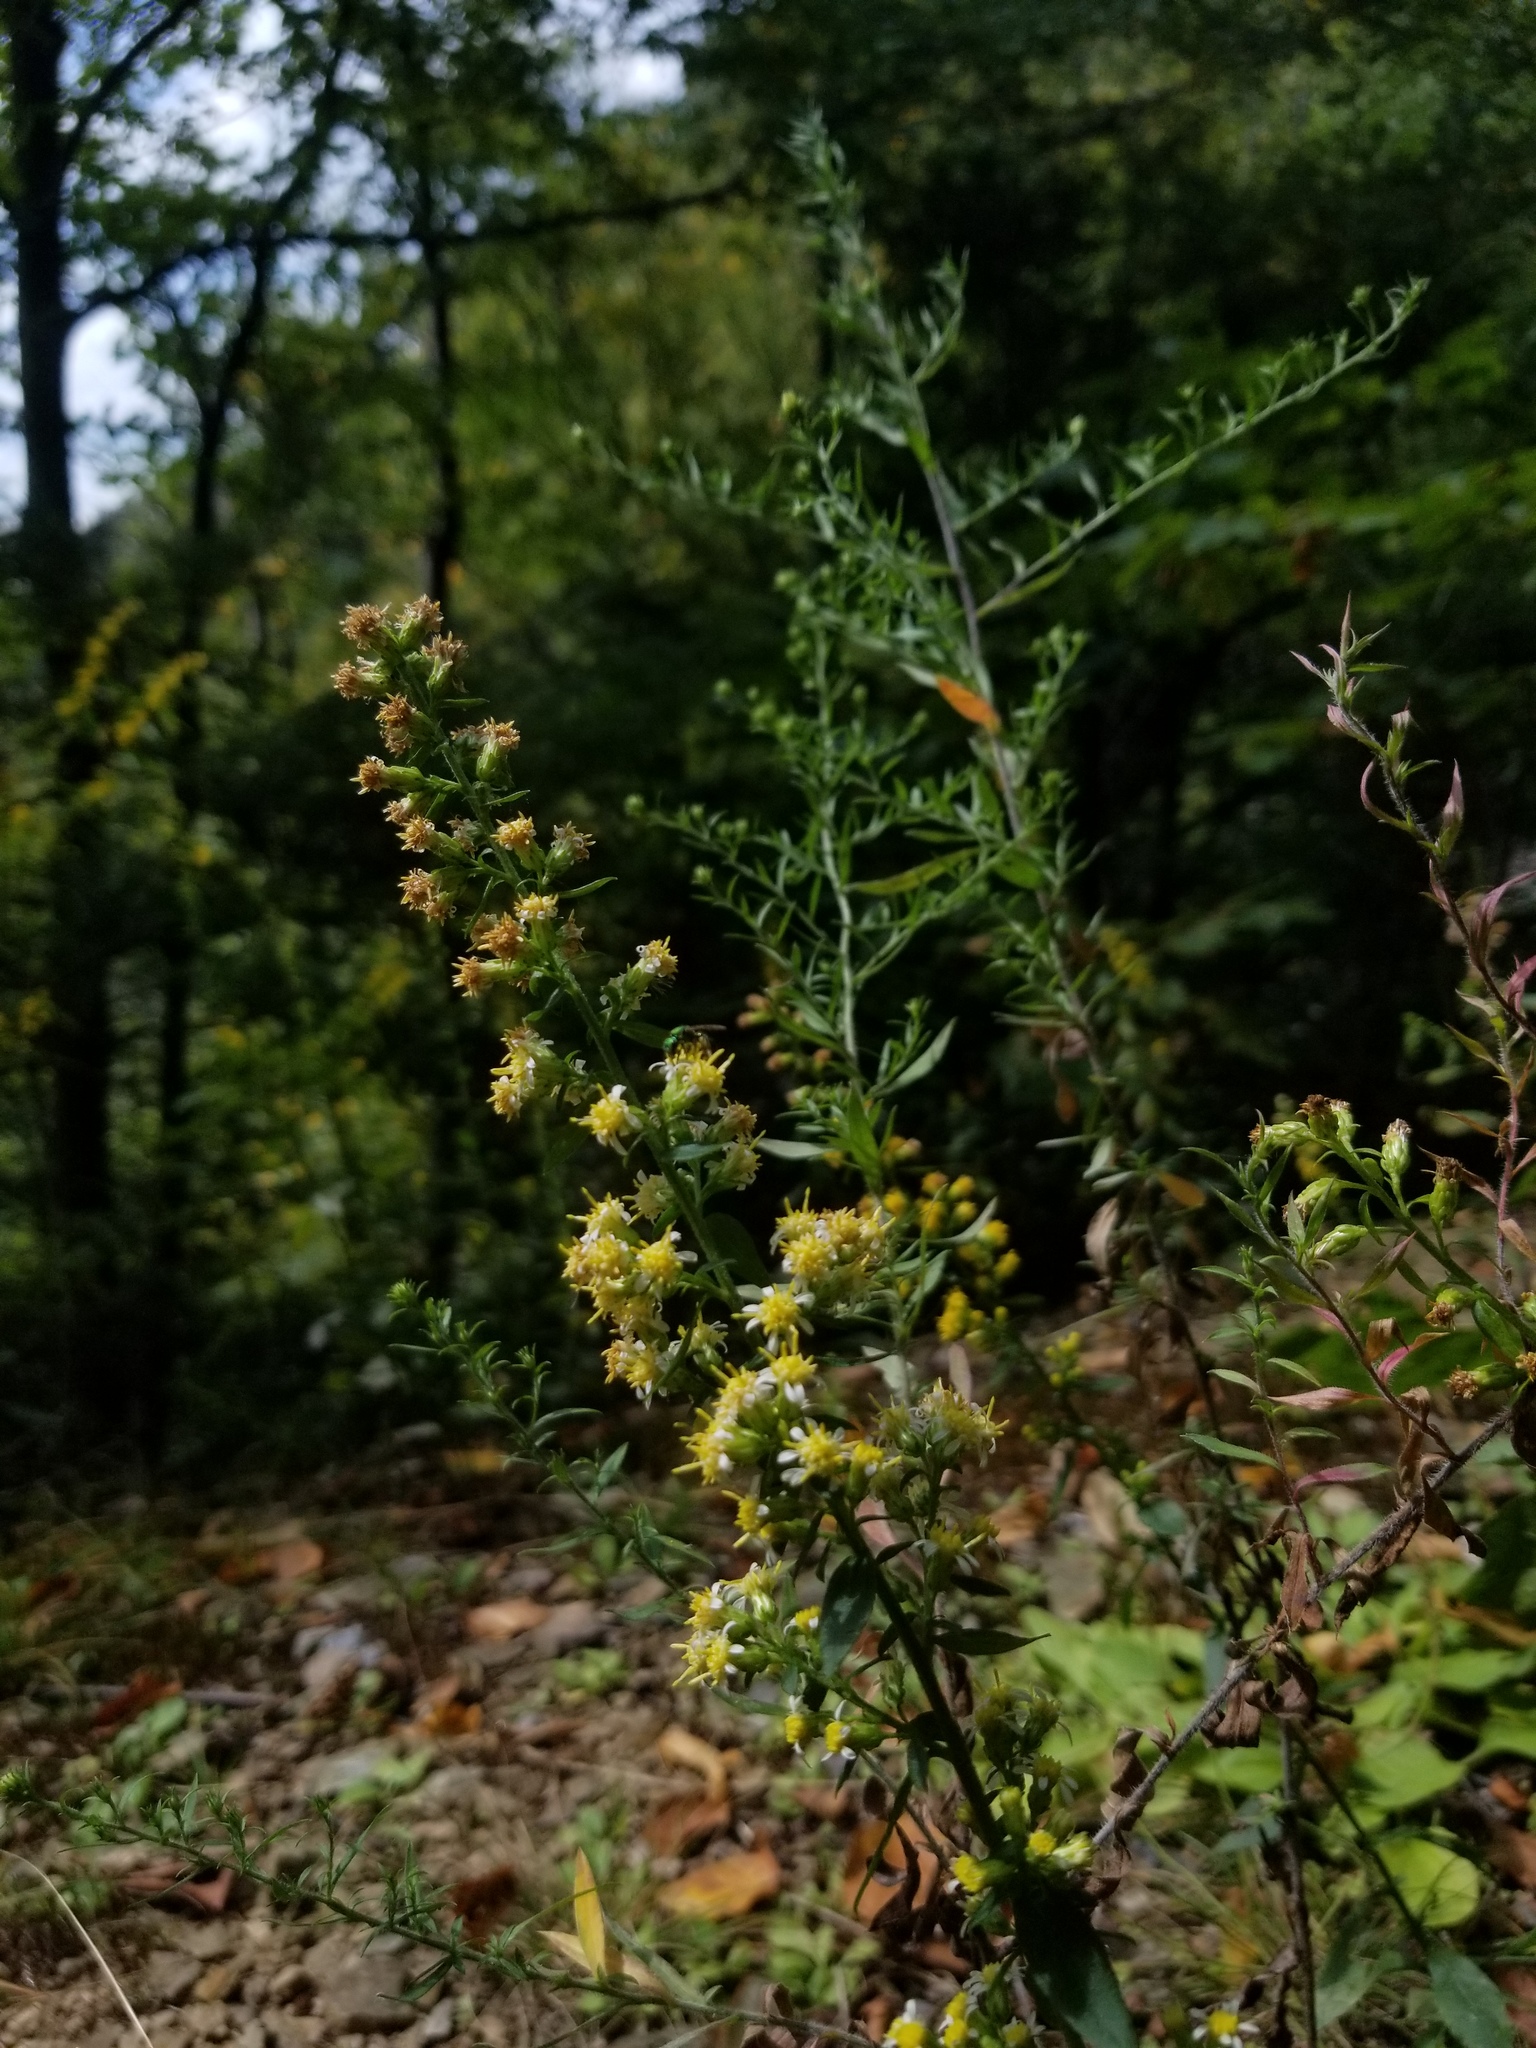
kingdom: Plantae
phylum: Tracheophyta
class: Magnoliopsida
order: Asterales
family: Asteraceae
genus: Solidago
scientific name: Solidago bicolor
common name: Silverrod
